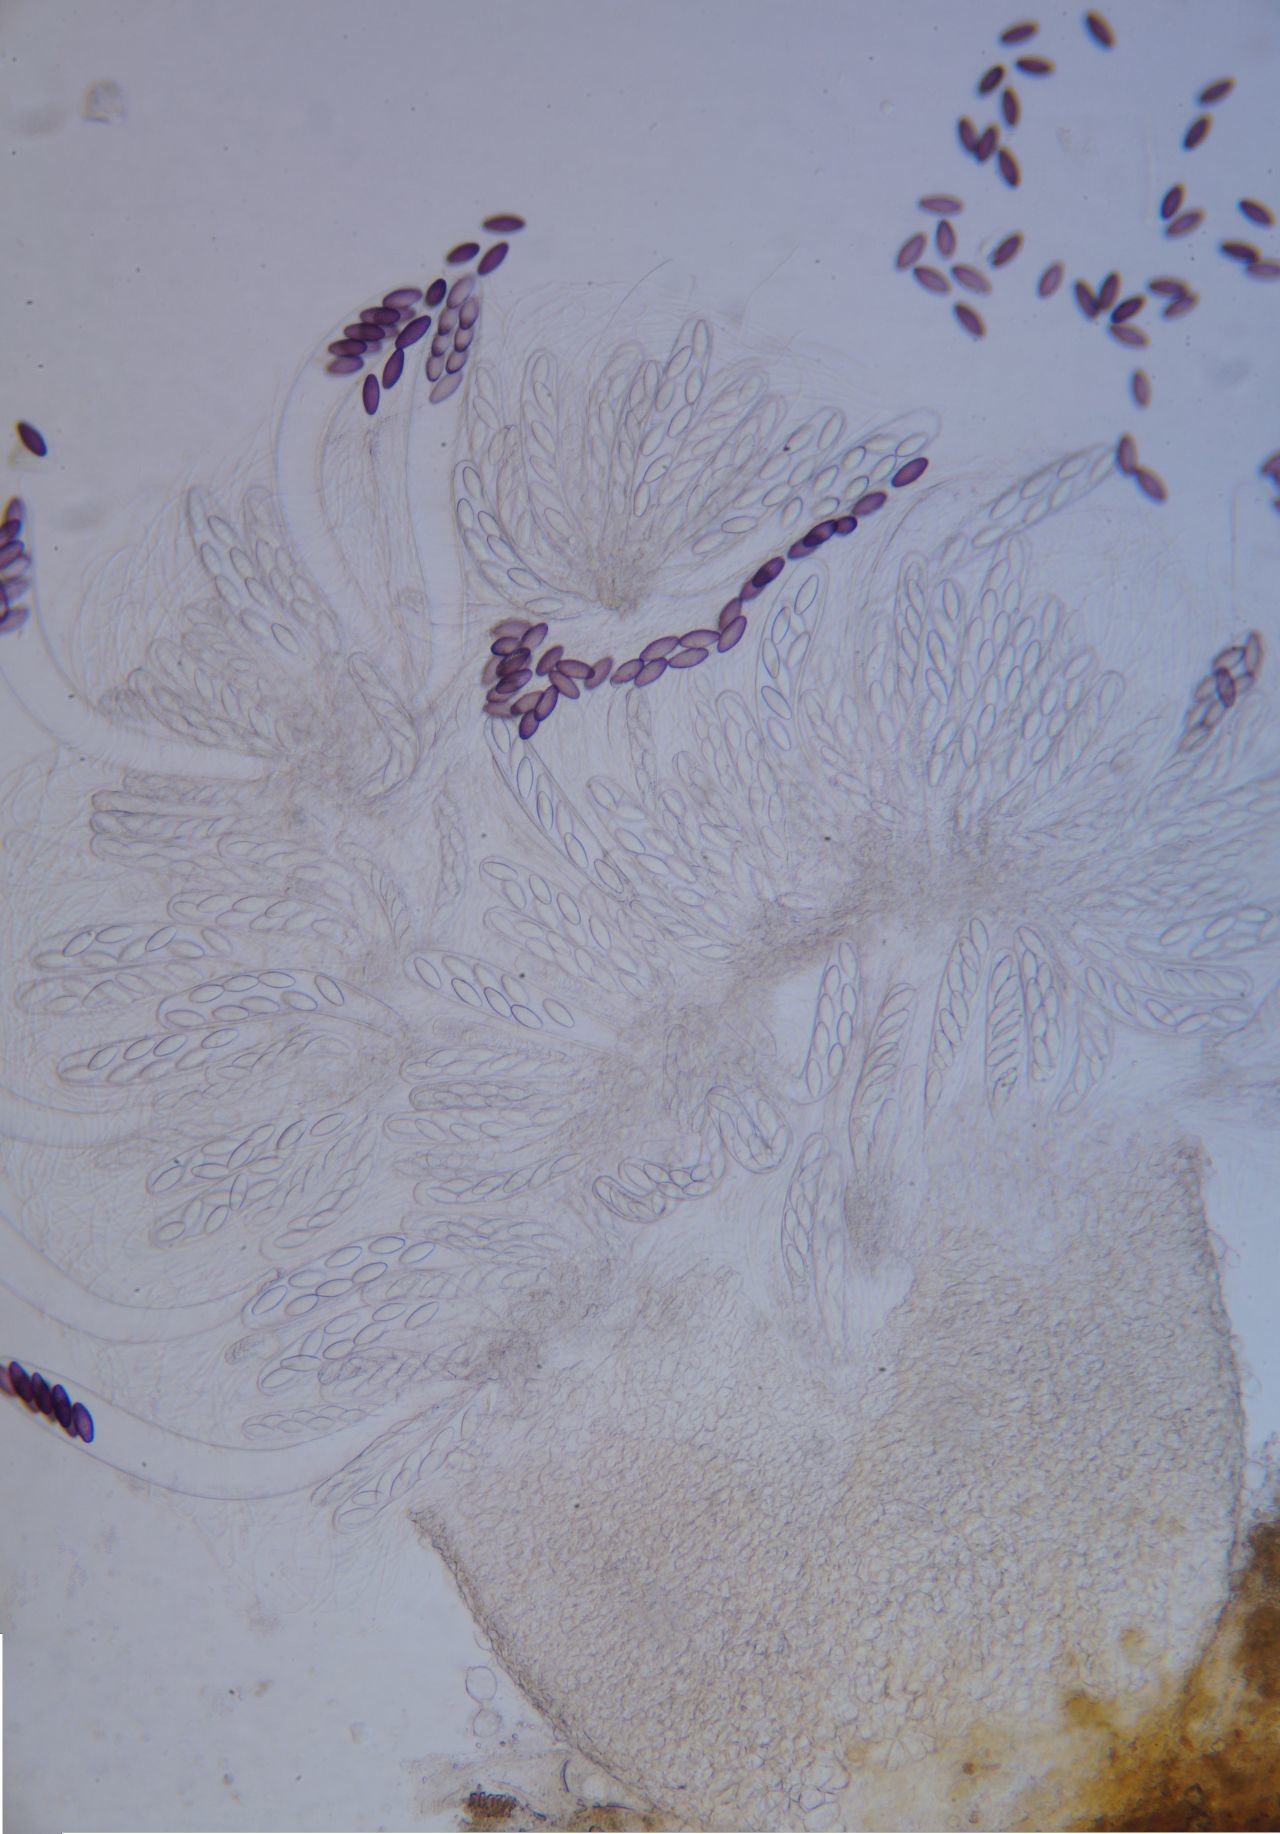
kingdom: Fungi
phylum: Ascomycota
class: Pezizomycetes
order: Pezizales
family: Ascobolaceae
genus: Ascobolus
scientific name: Ascobolus albidus
